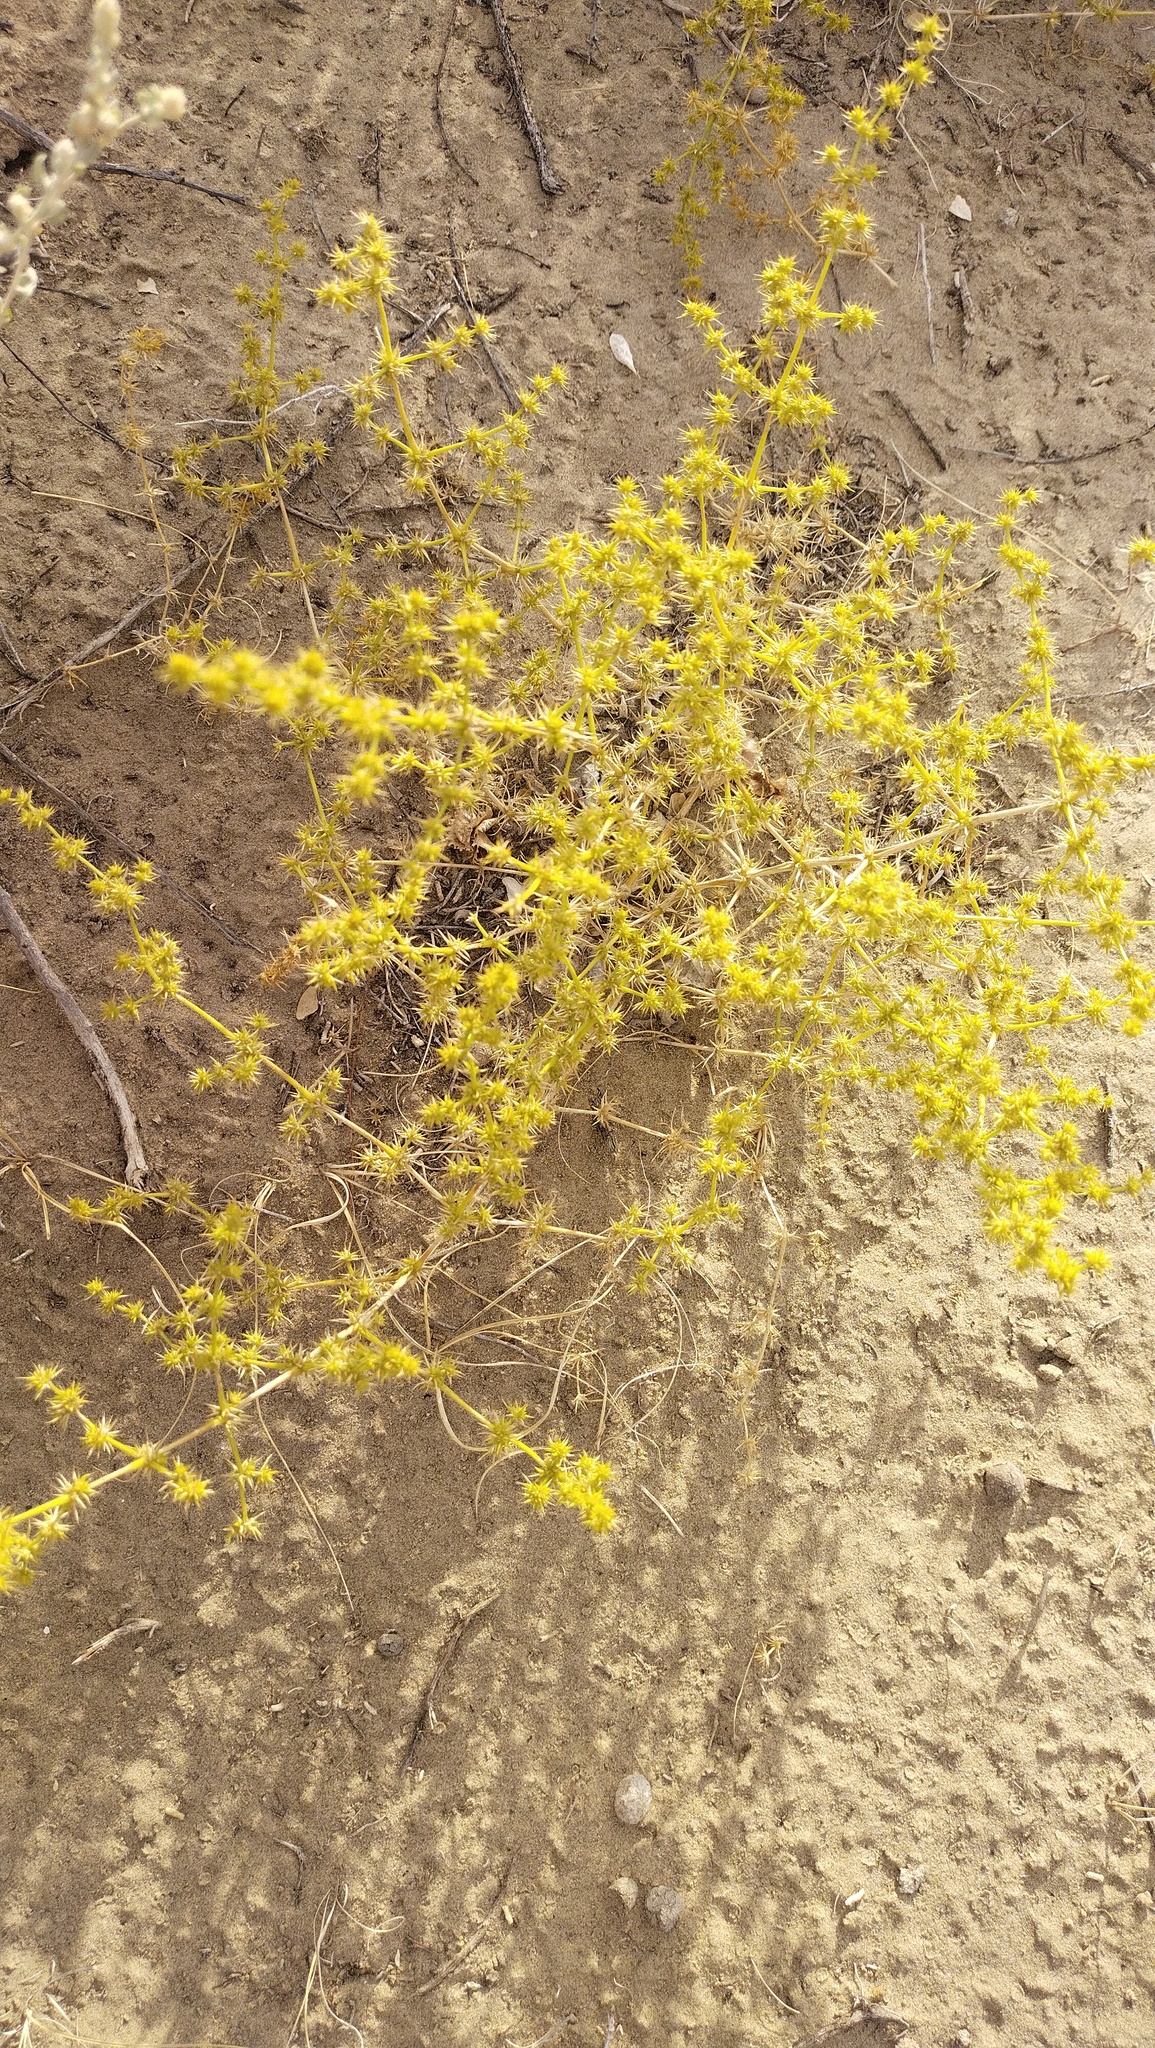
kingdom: Plantae
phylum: Tracheophyta
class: Magnoliopsida
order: Caryophyllales
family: Amaranthaceae
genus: Horaninovia
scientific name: Horaninovia ulicina
